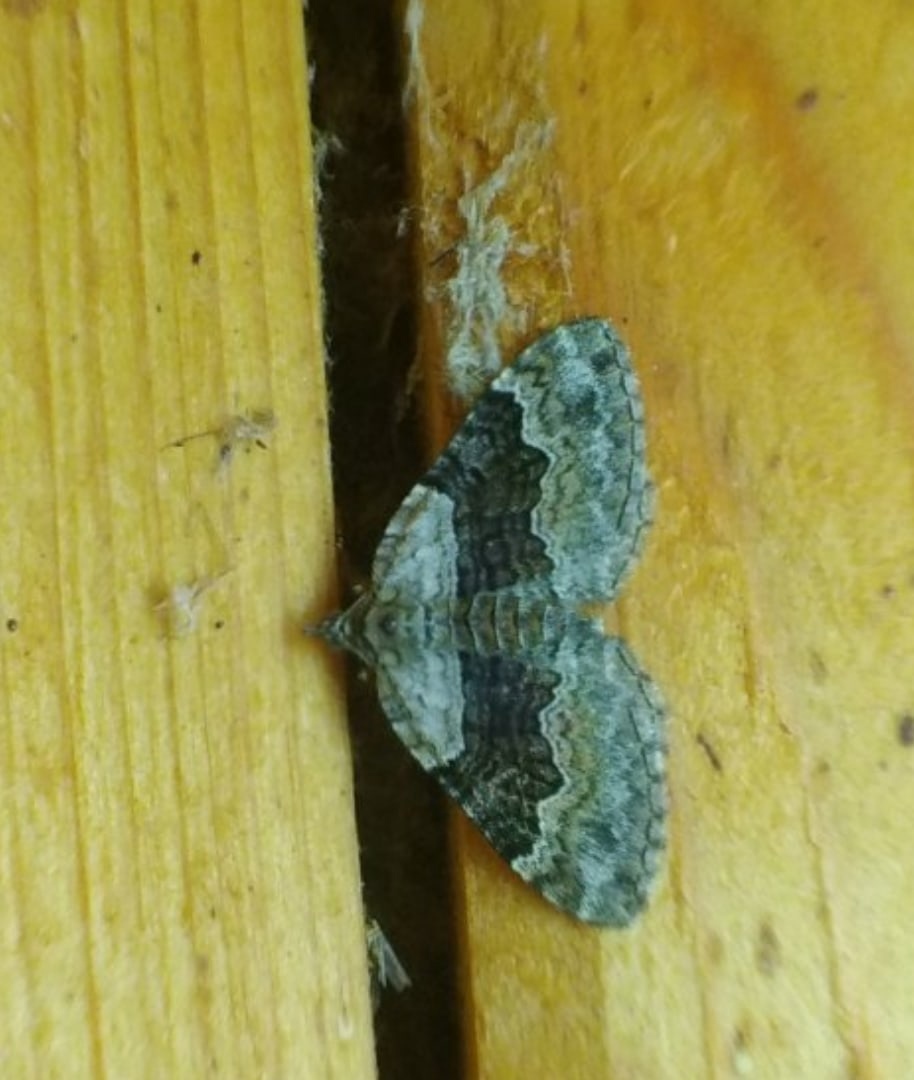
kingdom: Animalia
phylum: Arthropoda
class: Insecta
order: Lepidoptera
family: Geometridae
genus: Xanthorhoe
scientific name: Xanthorhoe quadrifasiata
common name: Large twin-spot carpet
